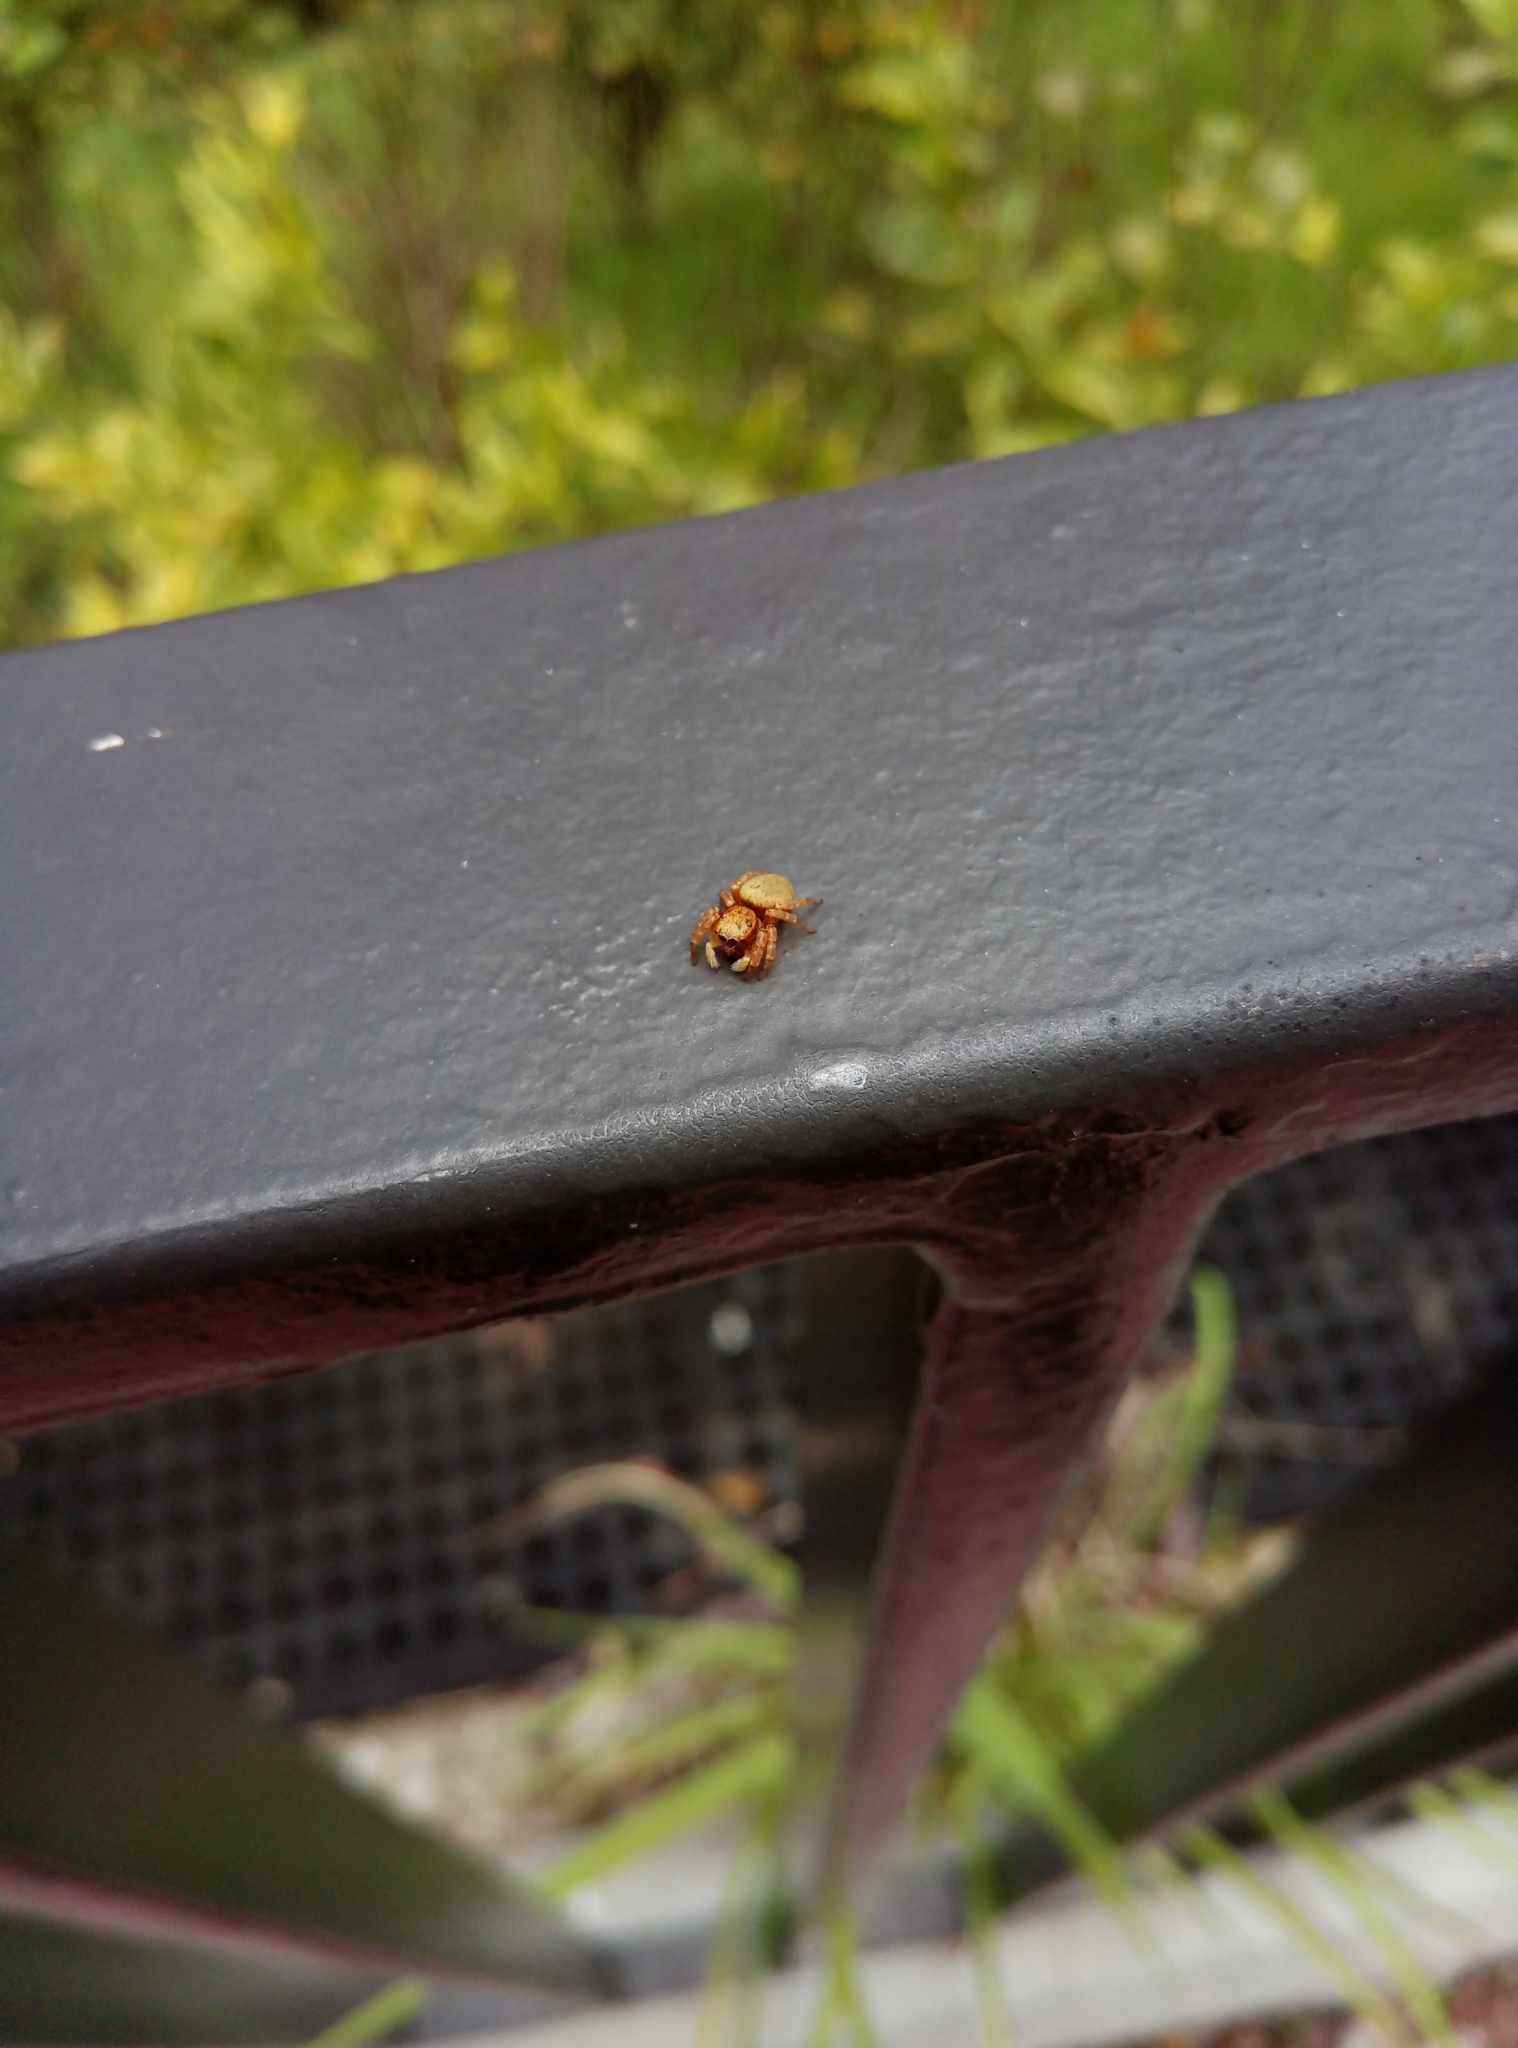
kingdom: Animalia
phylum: Arthropoda
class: Arachnida
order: Araneae
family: Salticidae
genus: Carrhotus
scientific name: Carrhotus sannio
